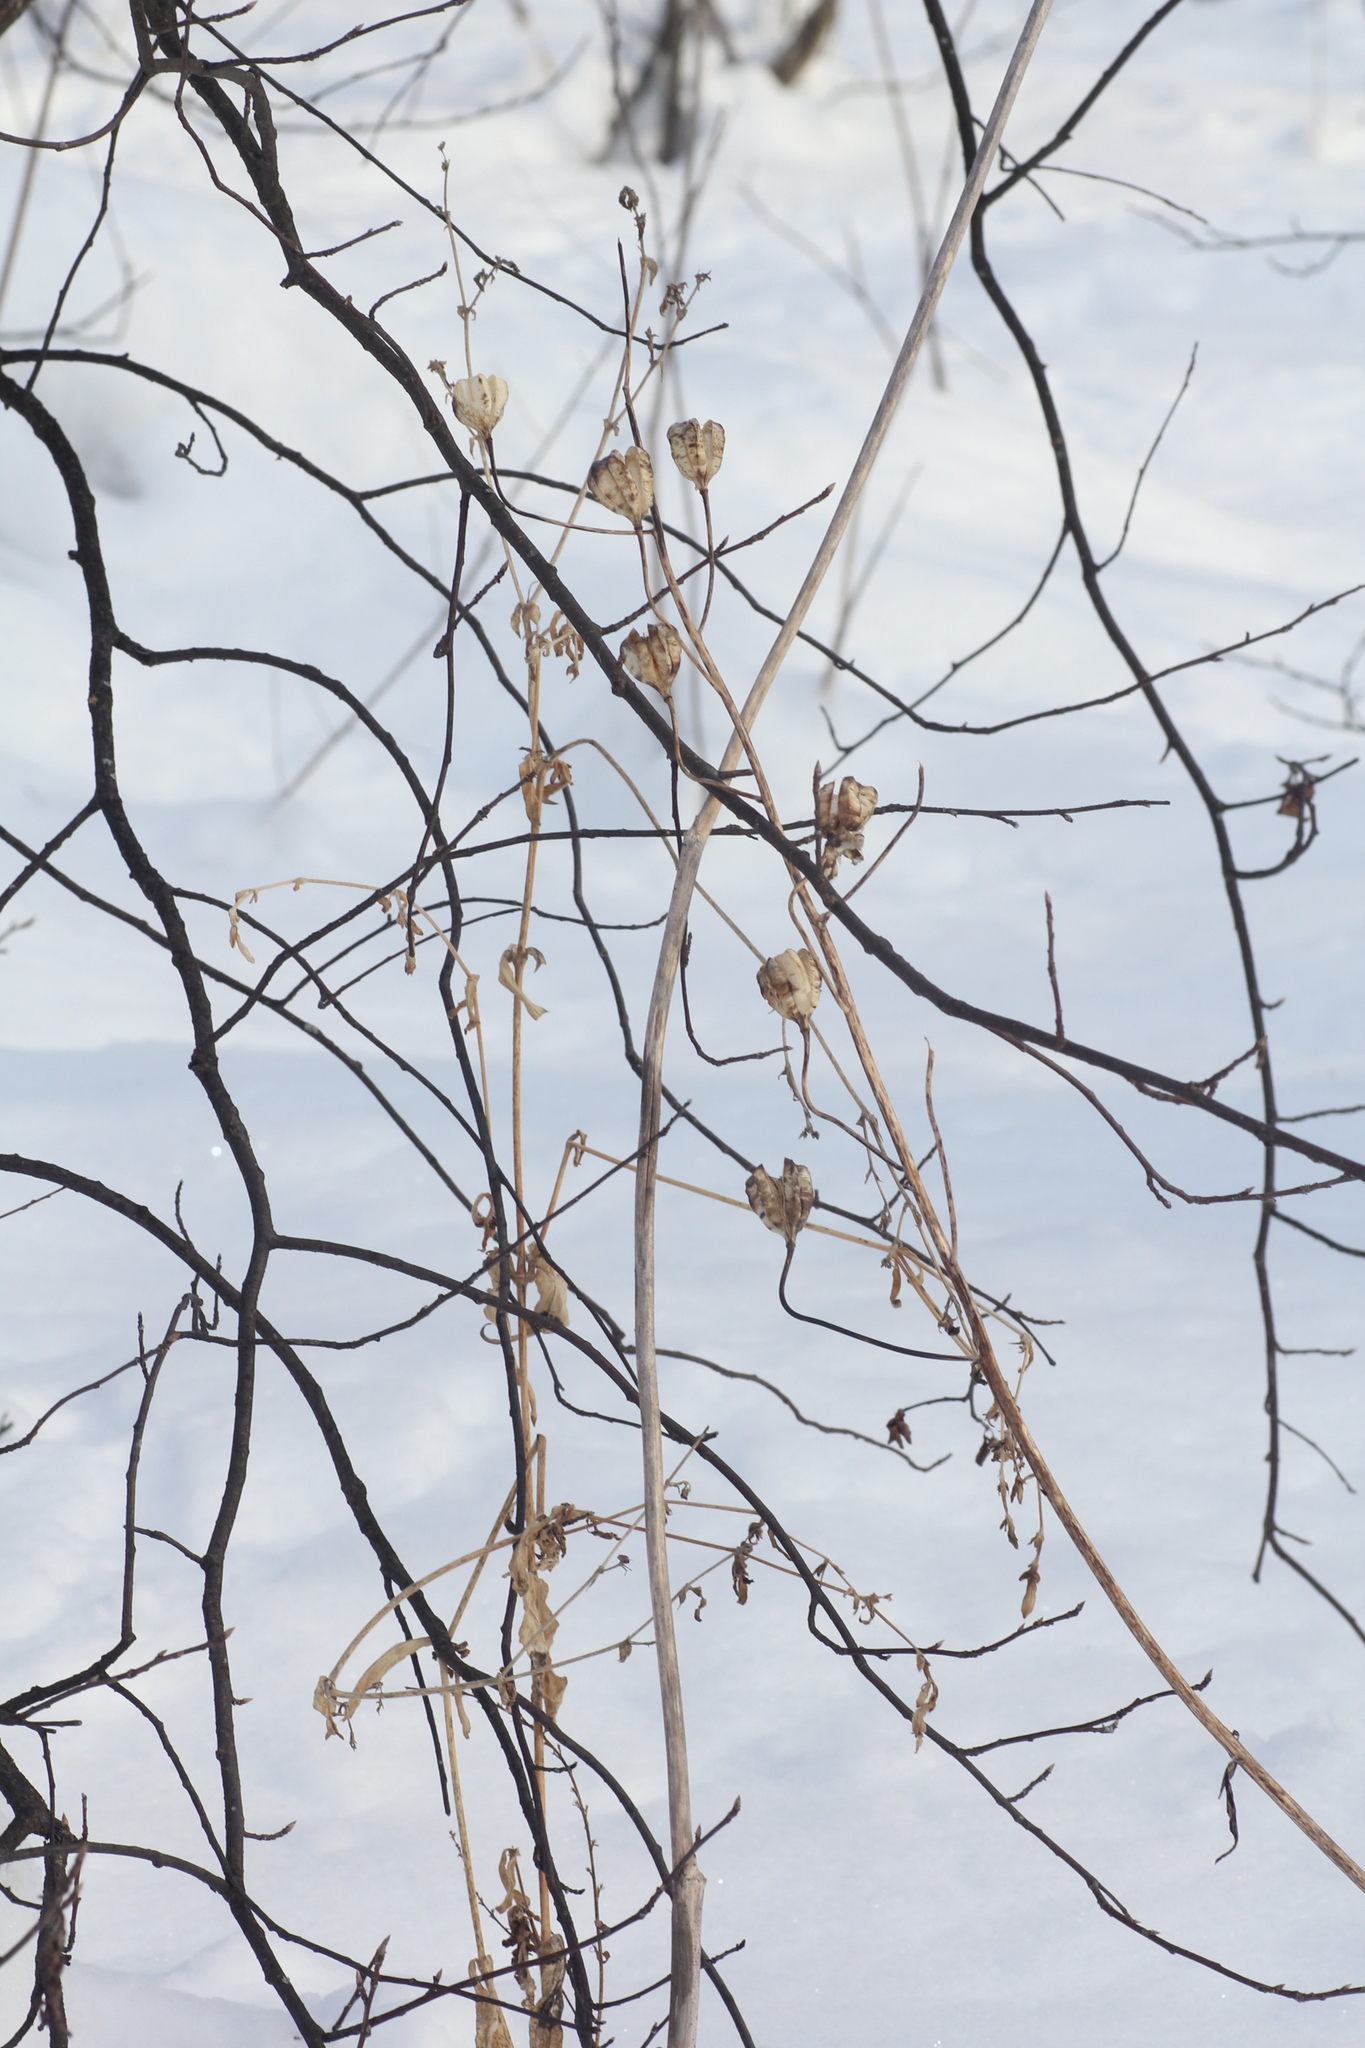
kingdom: Plantae
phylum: Tracheophyta
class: Liliopsida
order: Liliales
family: Liliaceae
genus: Lilium
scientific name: Lilium martagon
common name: Martagon lily
